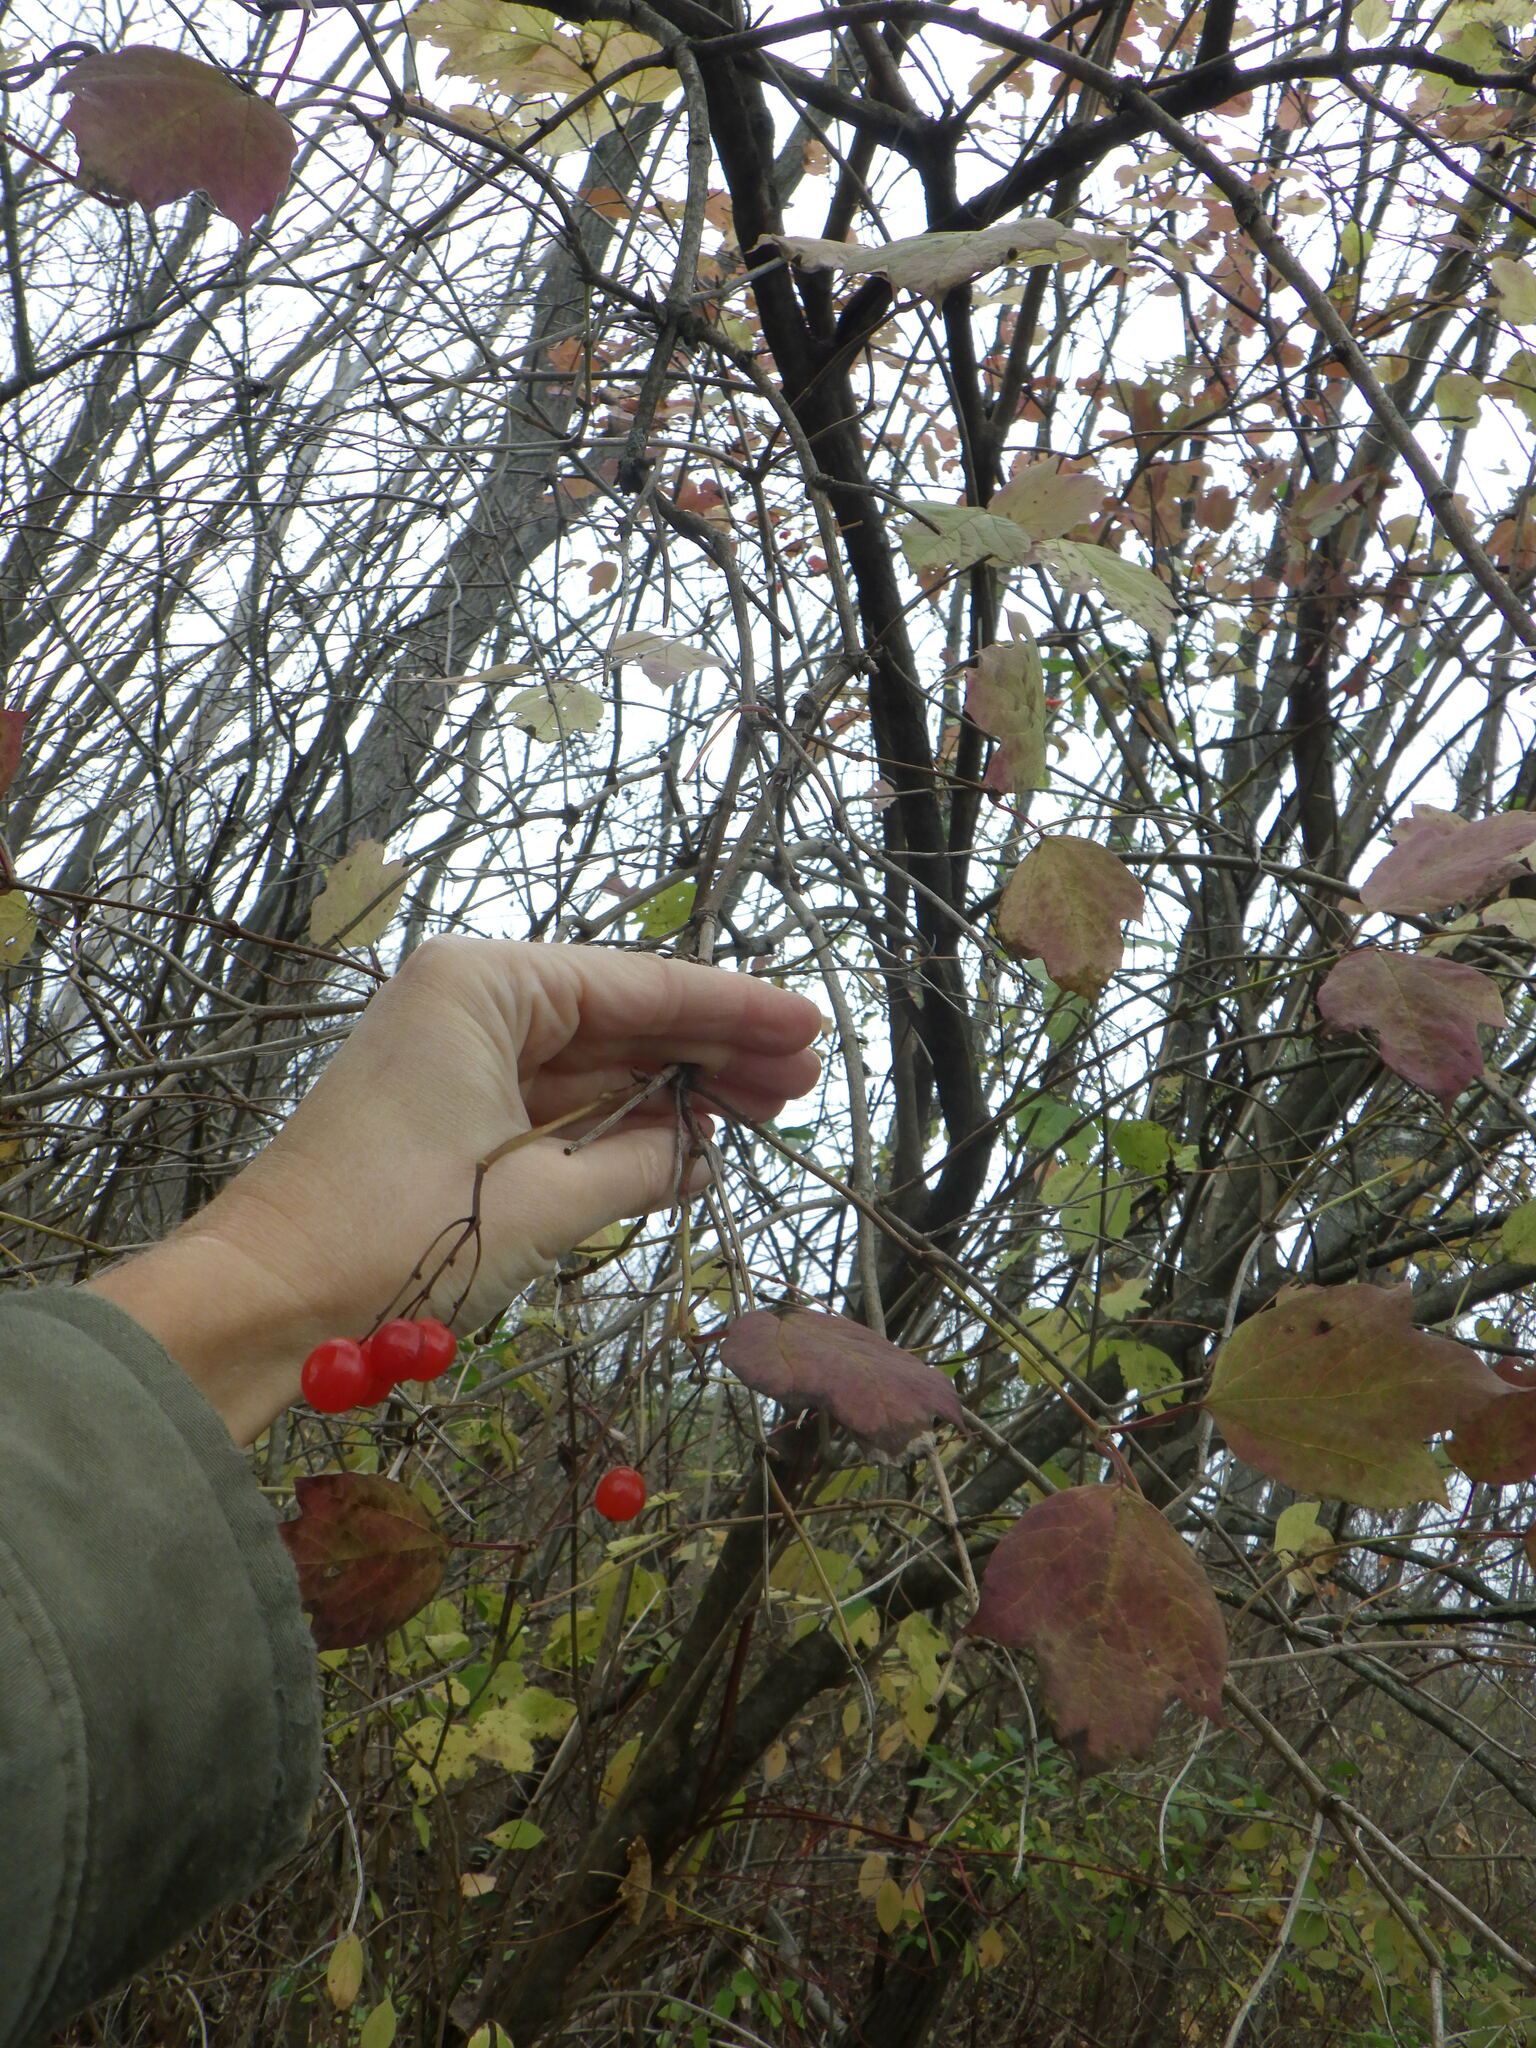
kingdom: Plantae
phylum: Tracheophyta
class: Magnoliopsida
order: Dipsacales
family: Viburnaceae
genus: Viburnum
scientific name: Viburnum opulus
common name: Guelder-rose
